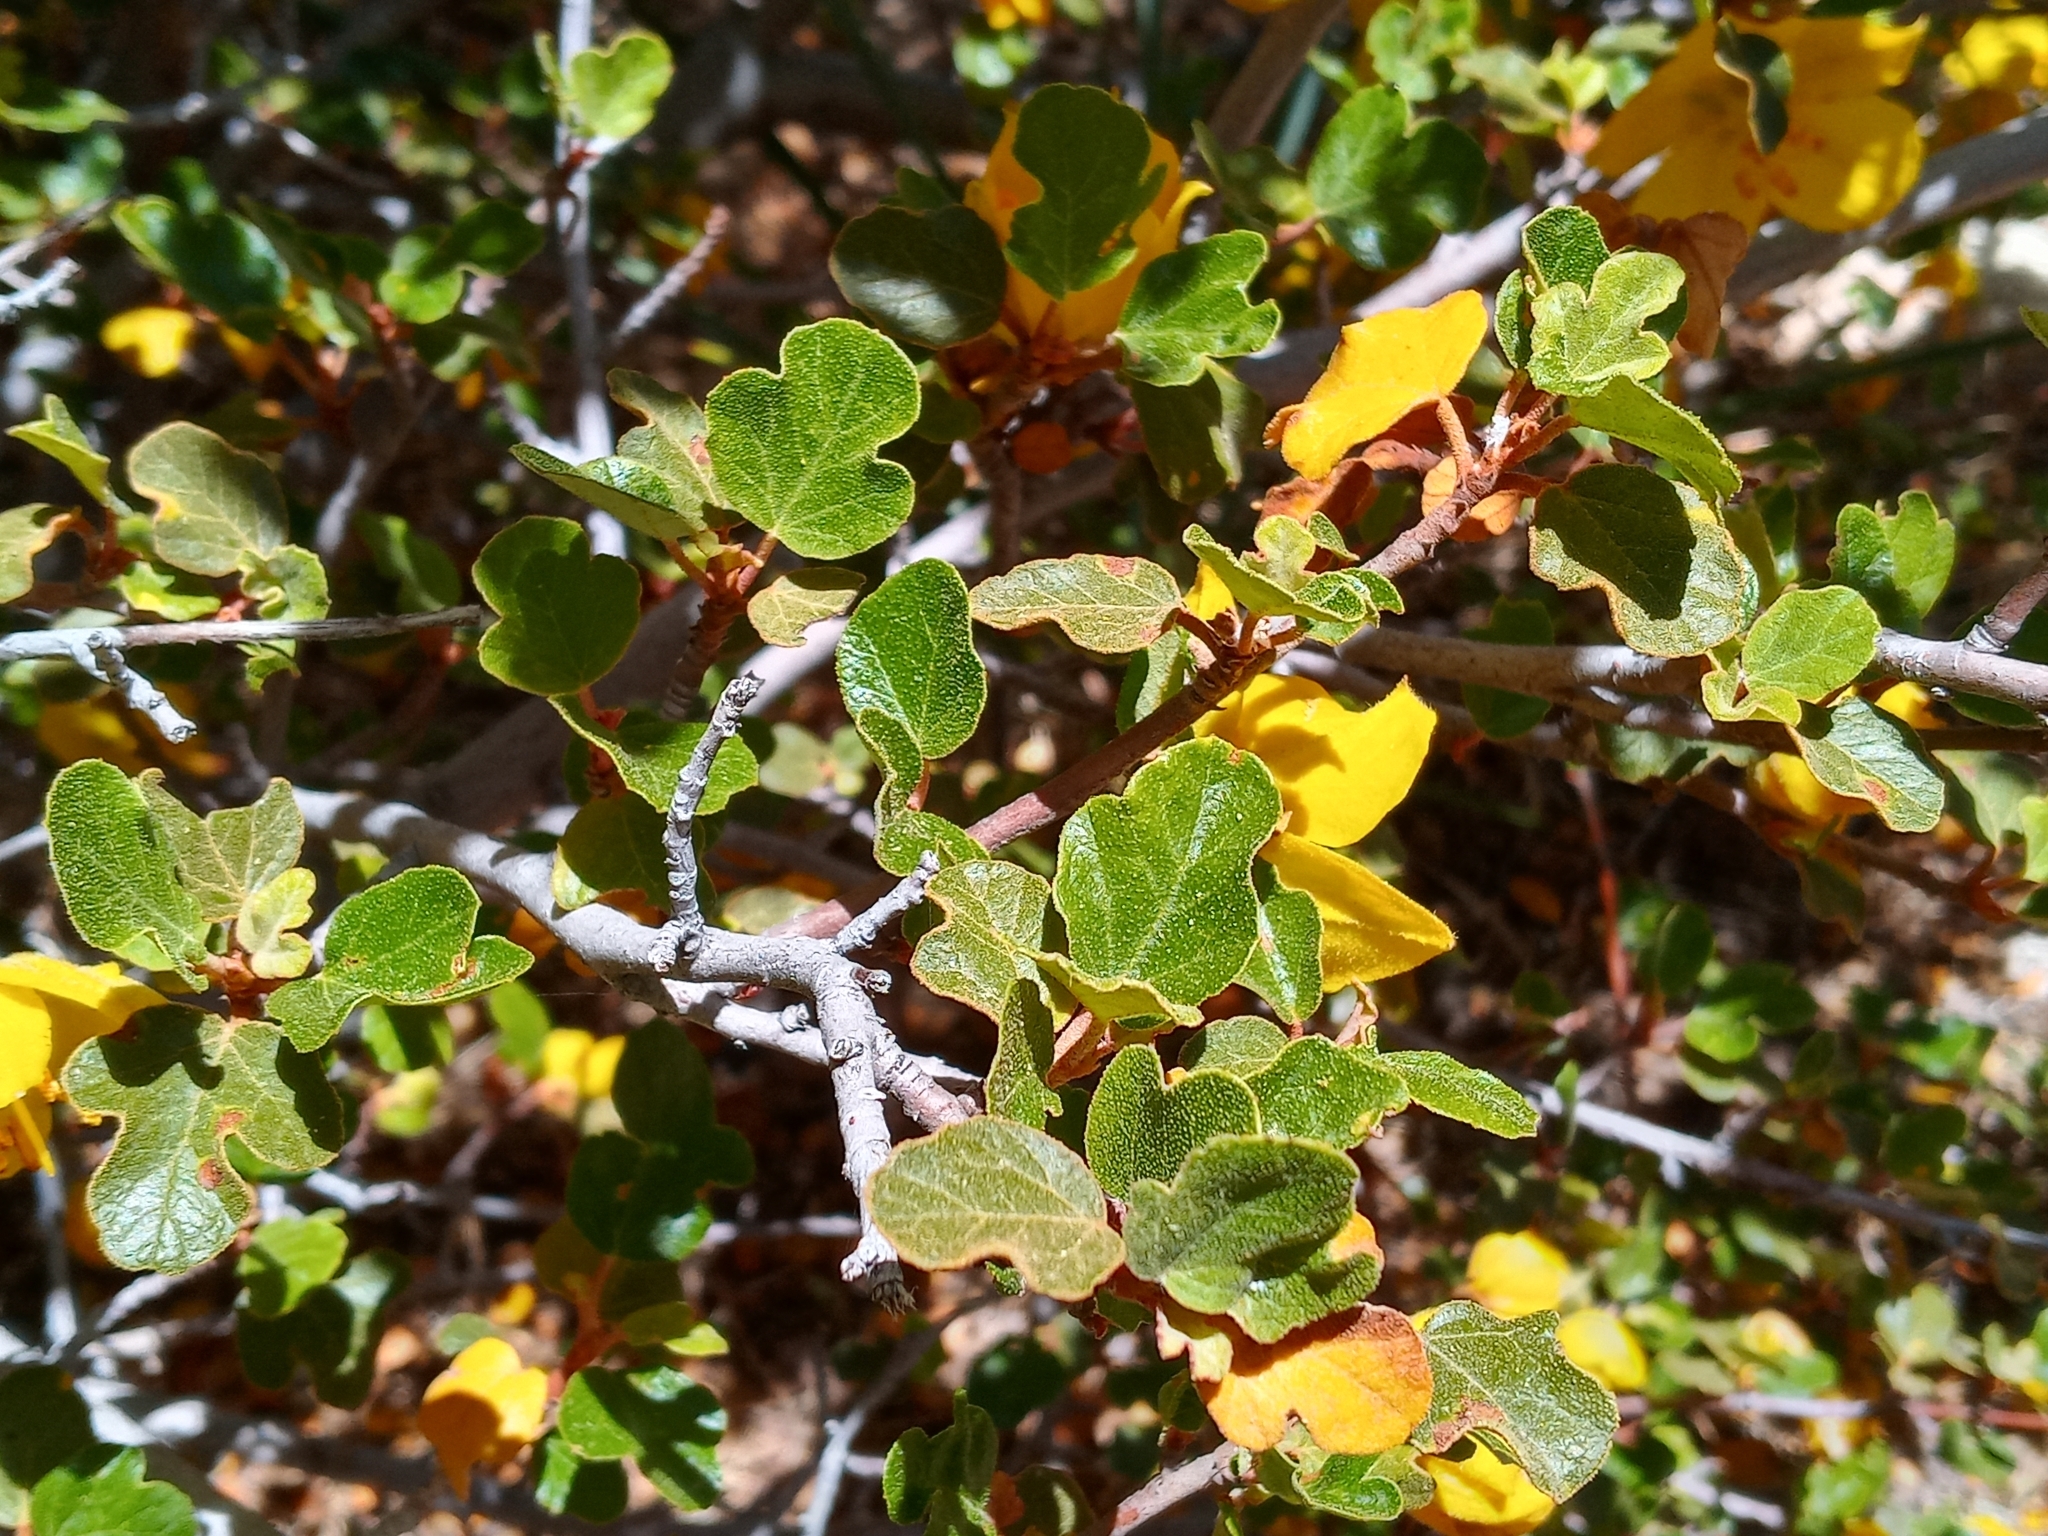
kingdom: Plantae
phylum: Tracheophyta
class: Magnoliopsida
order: Malvales
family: Malvaceae
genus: Fremontodendron
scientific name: Fremontodendron californicum
